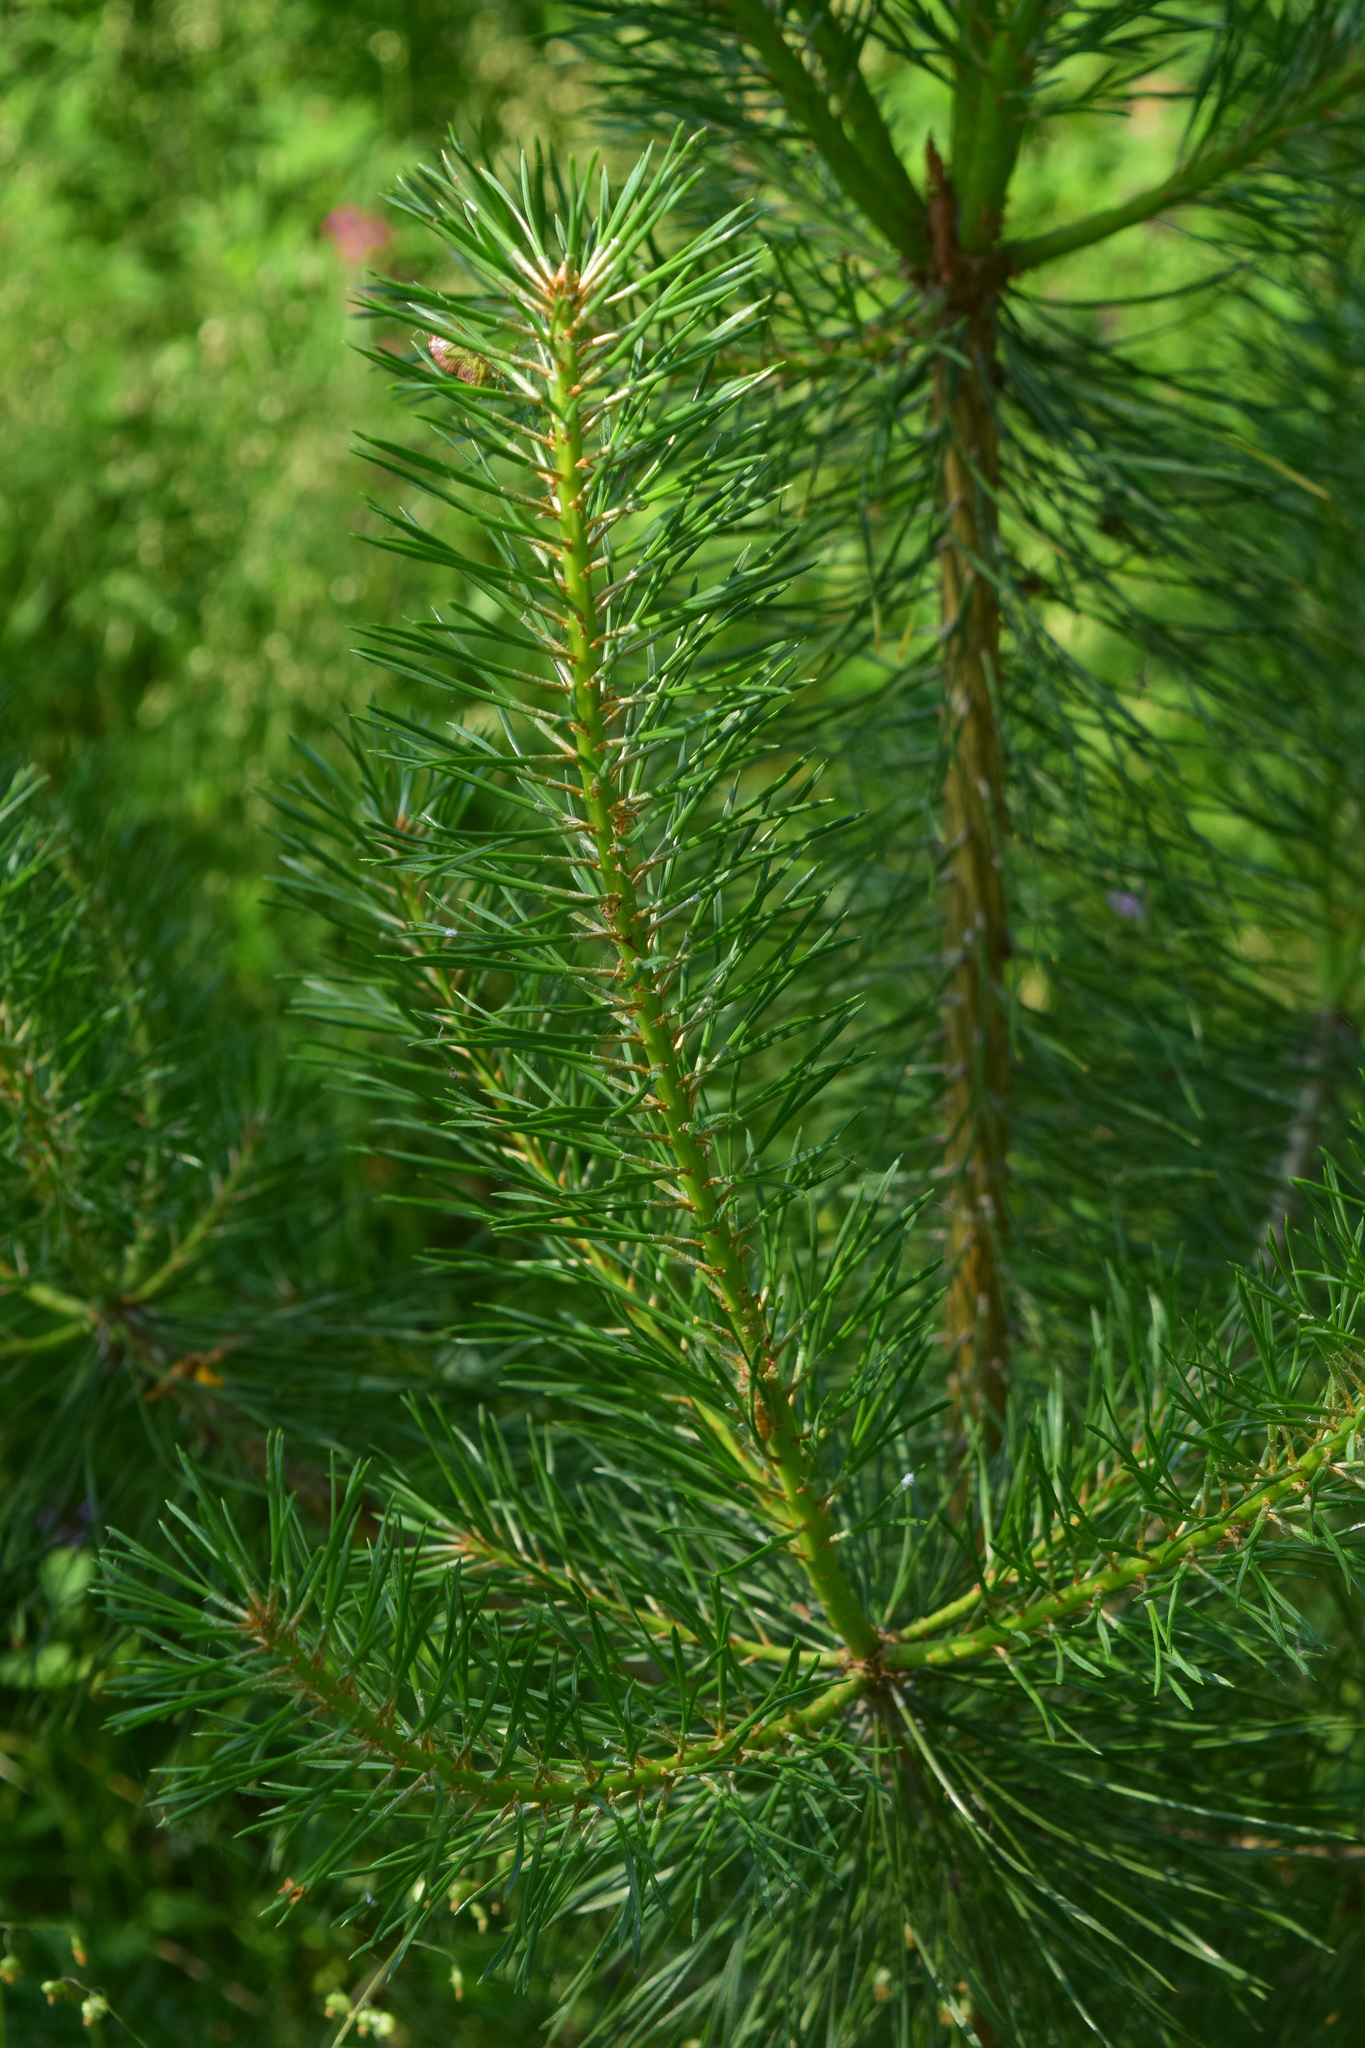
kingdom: Plantae
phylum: Tracheophyta
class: Pinopsida
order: Pinales
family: Pinaceae
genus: Pinus
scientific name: Pinus sylvestris
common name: Scots pine
